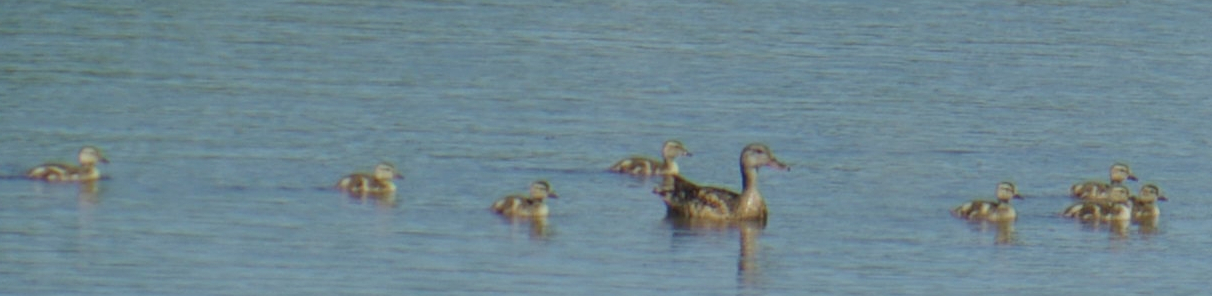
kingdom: Animalia
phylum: Chordata
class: Aves
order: Anseriformes
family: Anatidae
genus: Anas
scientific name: Anas platyrhynchos
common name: Mallard
